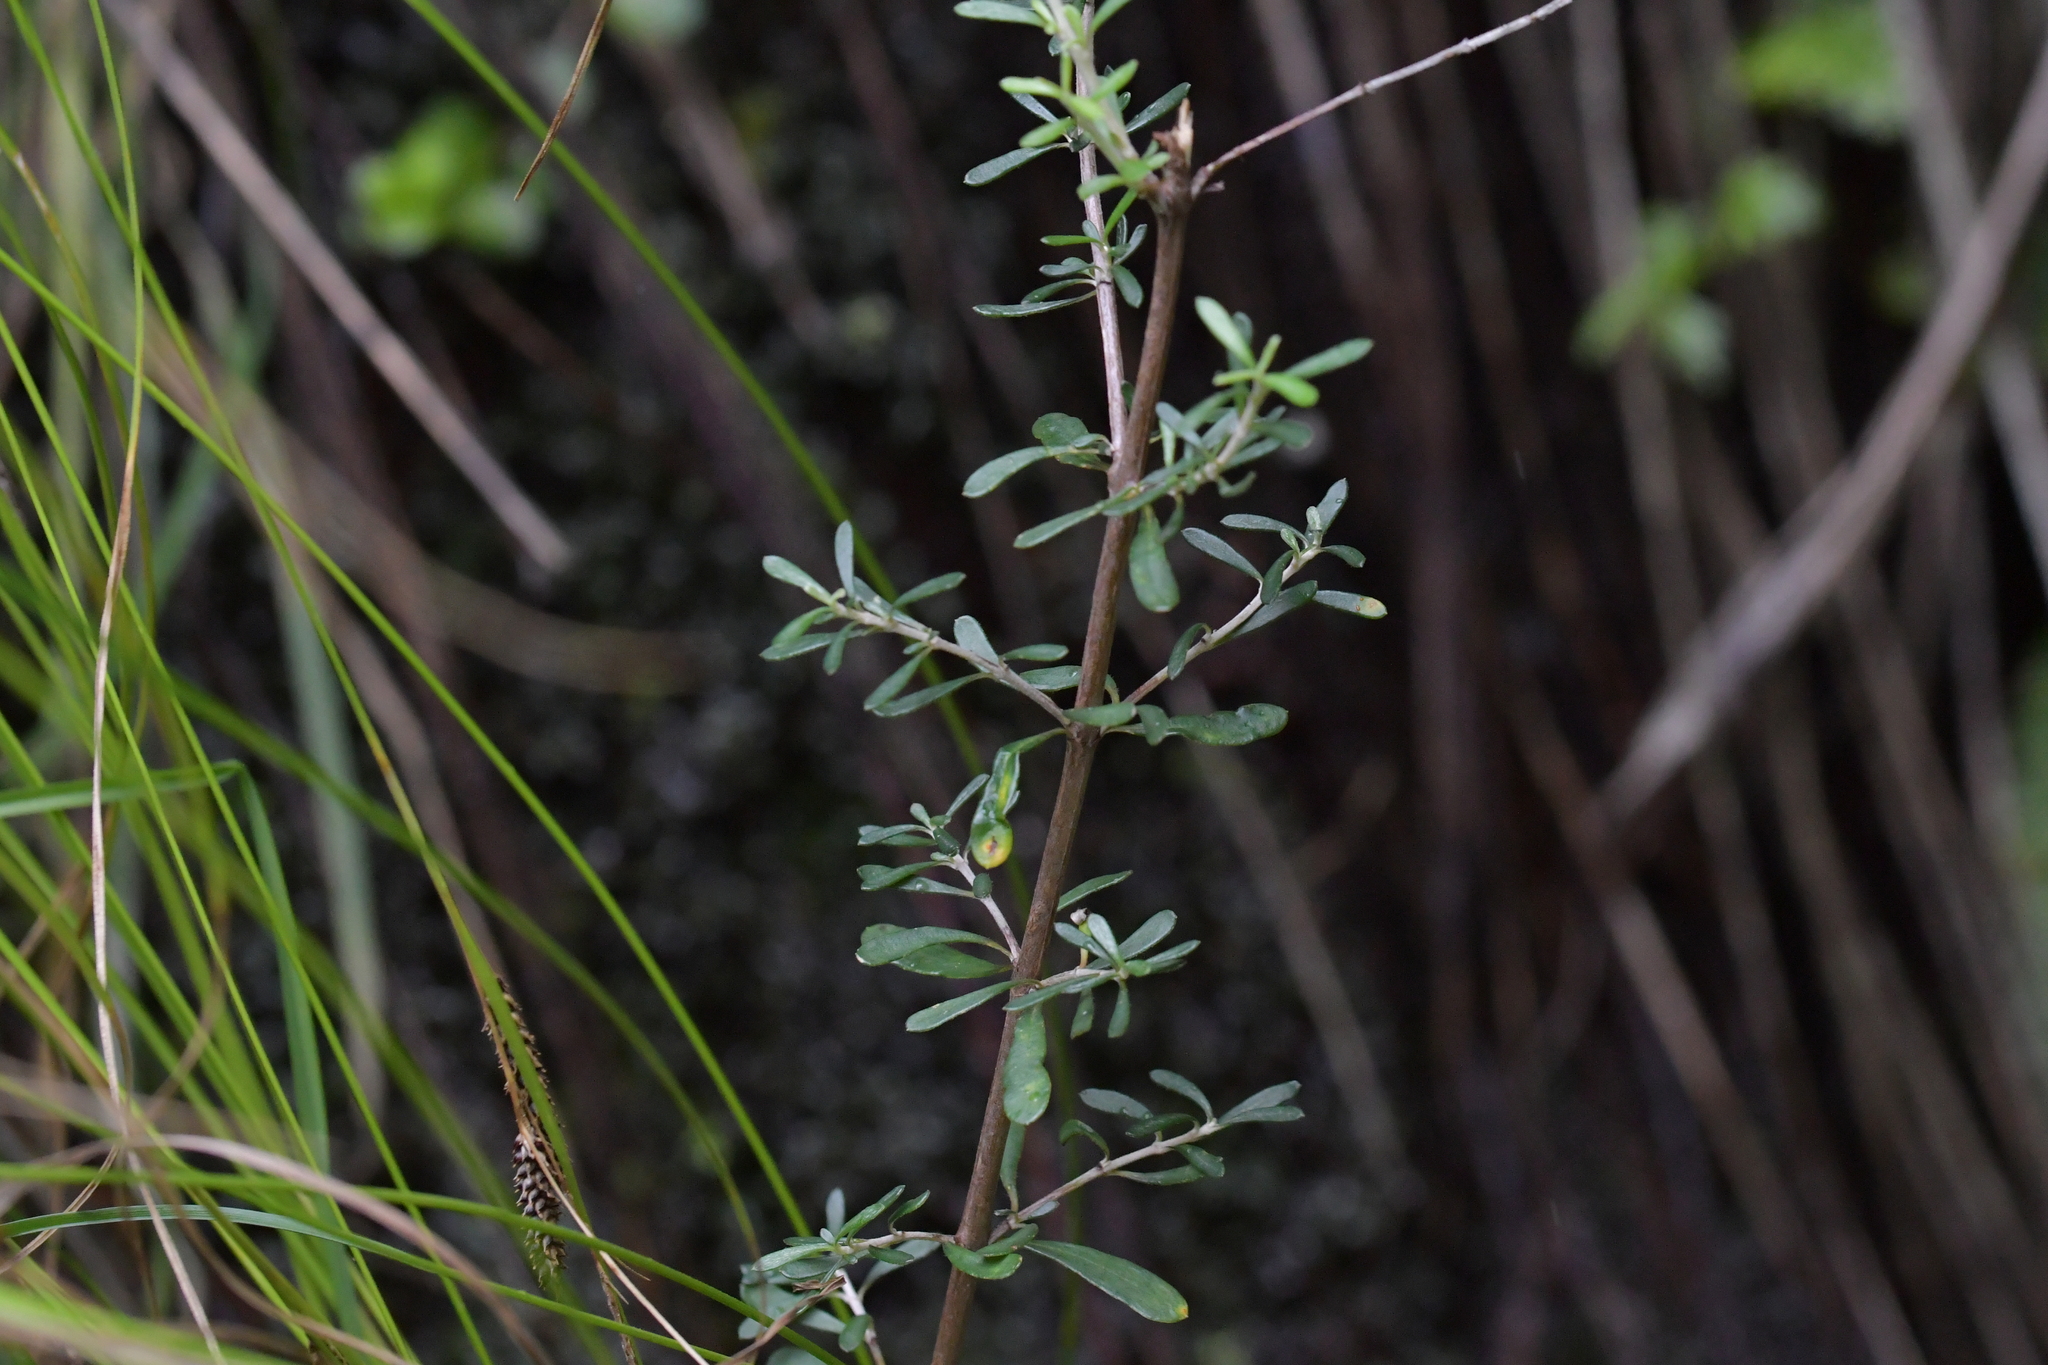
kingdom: Plantae
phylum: Tracheophyta
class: Magnoliopsida
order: Asterales
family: Asteraceae
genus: Olearia
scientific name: Olearia virgata
